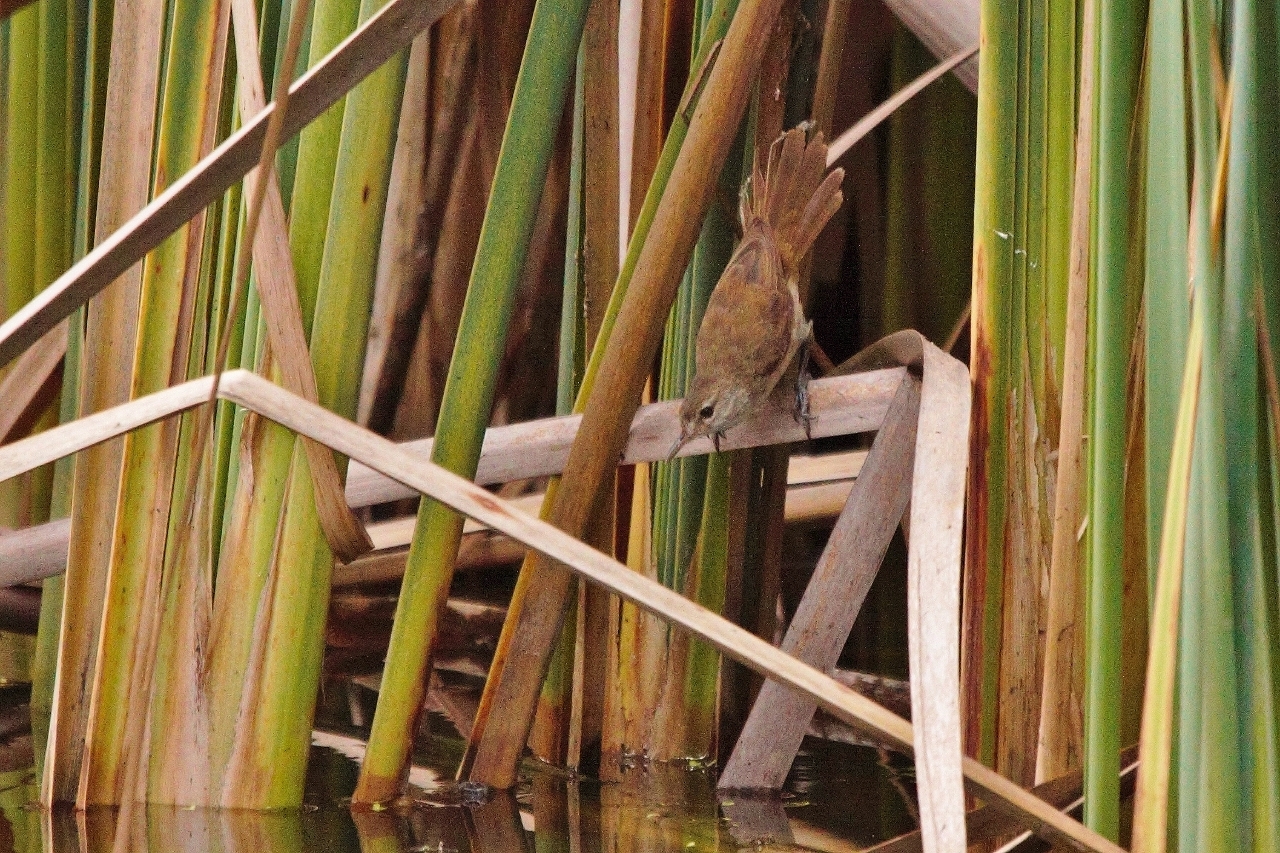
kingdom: Animalia
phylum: Chordata
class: Aves
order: Passeriformes
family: Acrocephalidae
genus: Acrocephalus
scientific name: Acrocephalus gracilirostris
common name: Lesser swamp warbler
